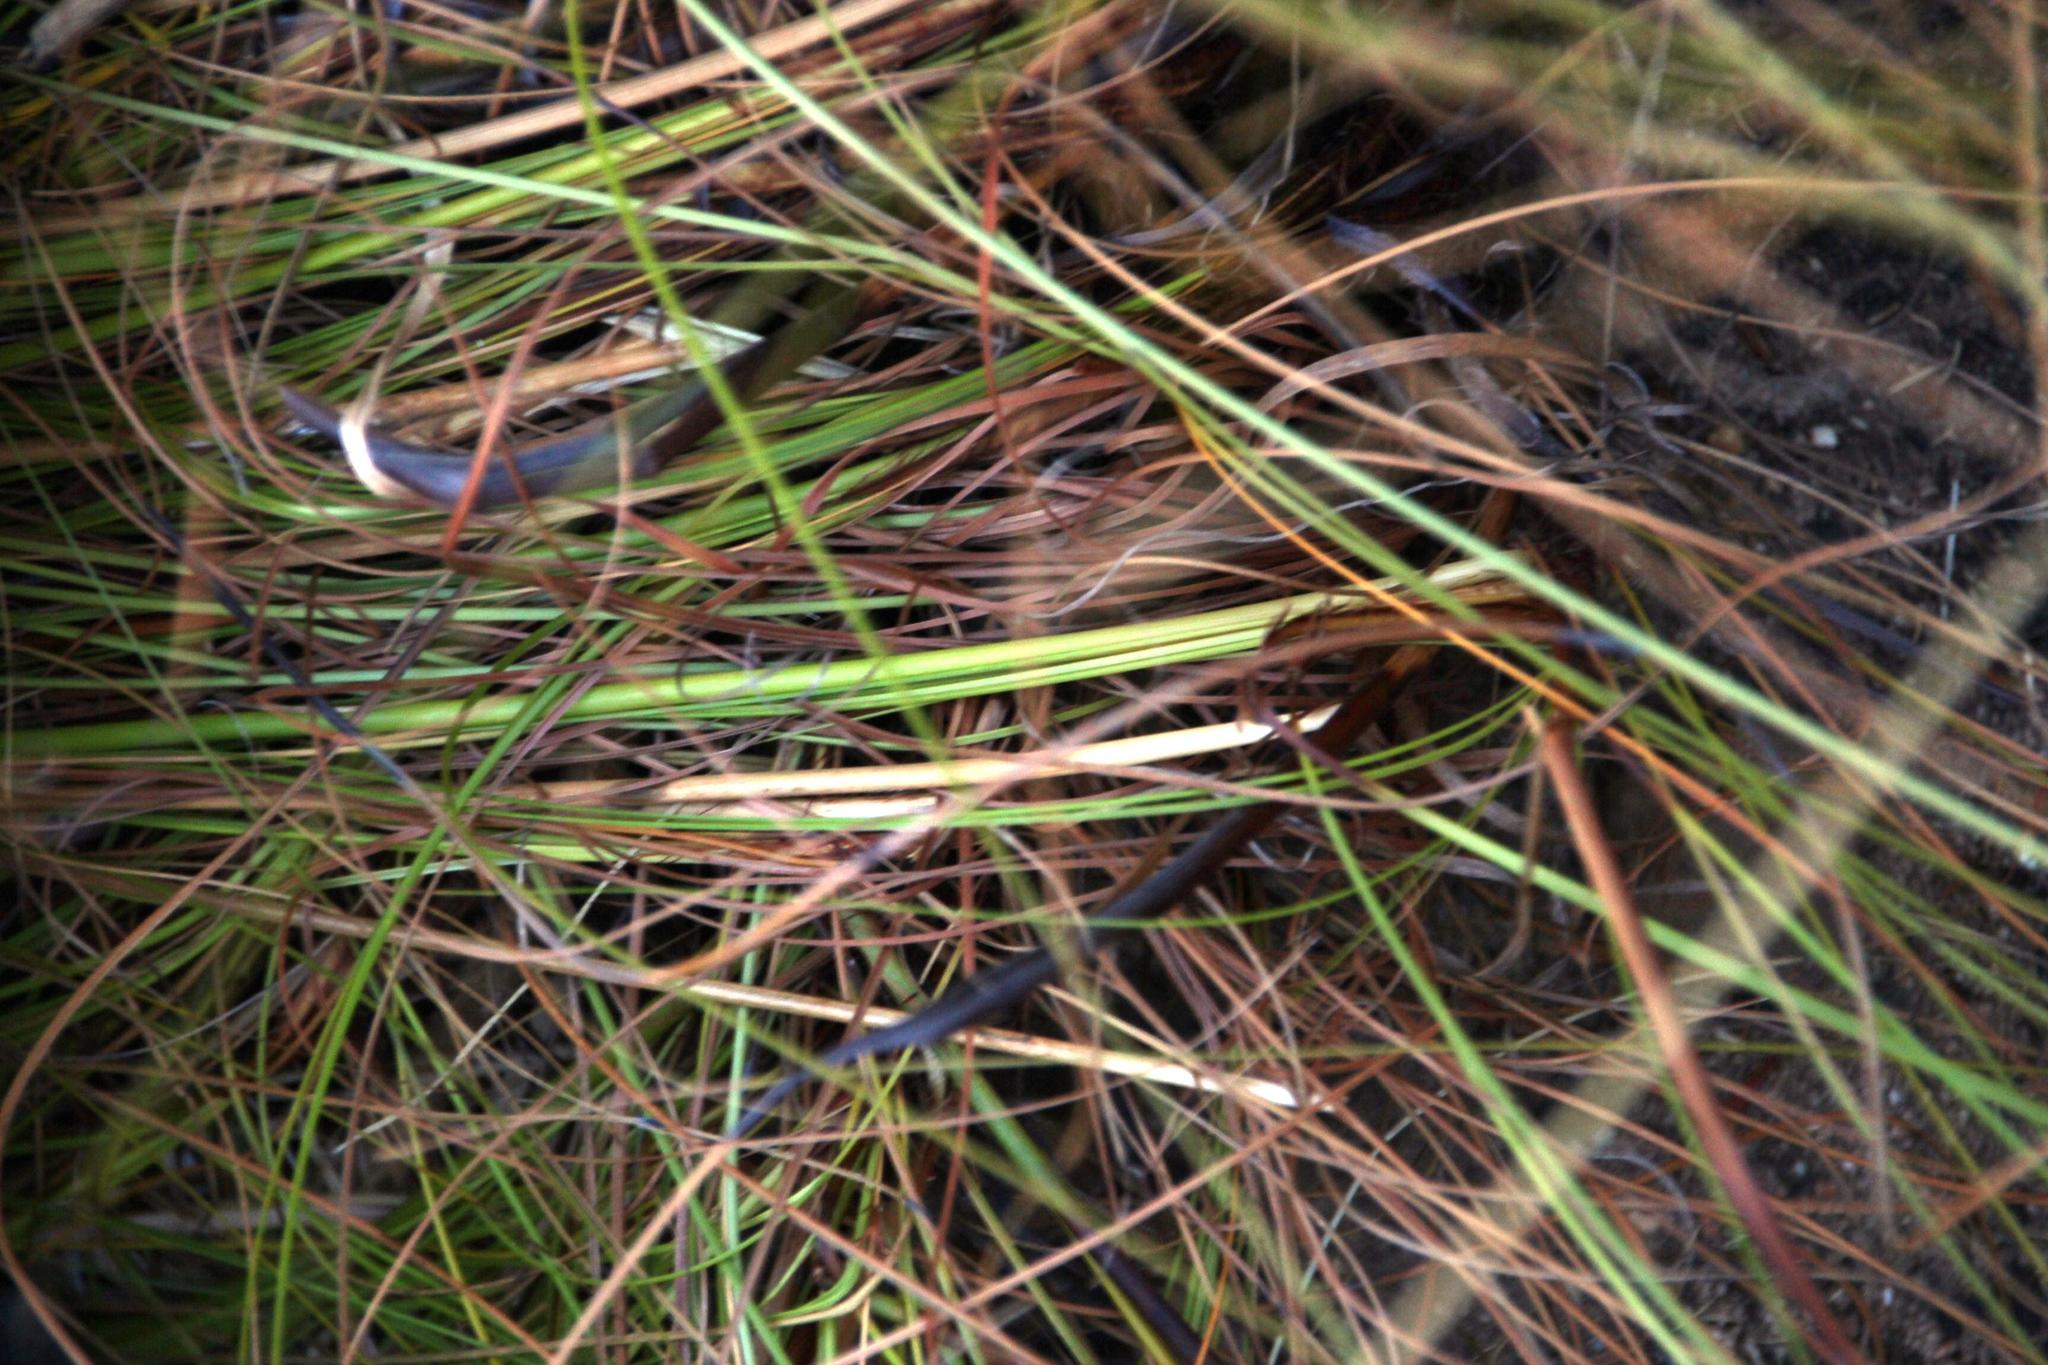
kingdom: Plantae
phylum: Tracheophyta
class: Liliopsida
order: Poales
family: Cyperaceae
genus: Tetraria
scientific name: Tetraria ustulata
